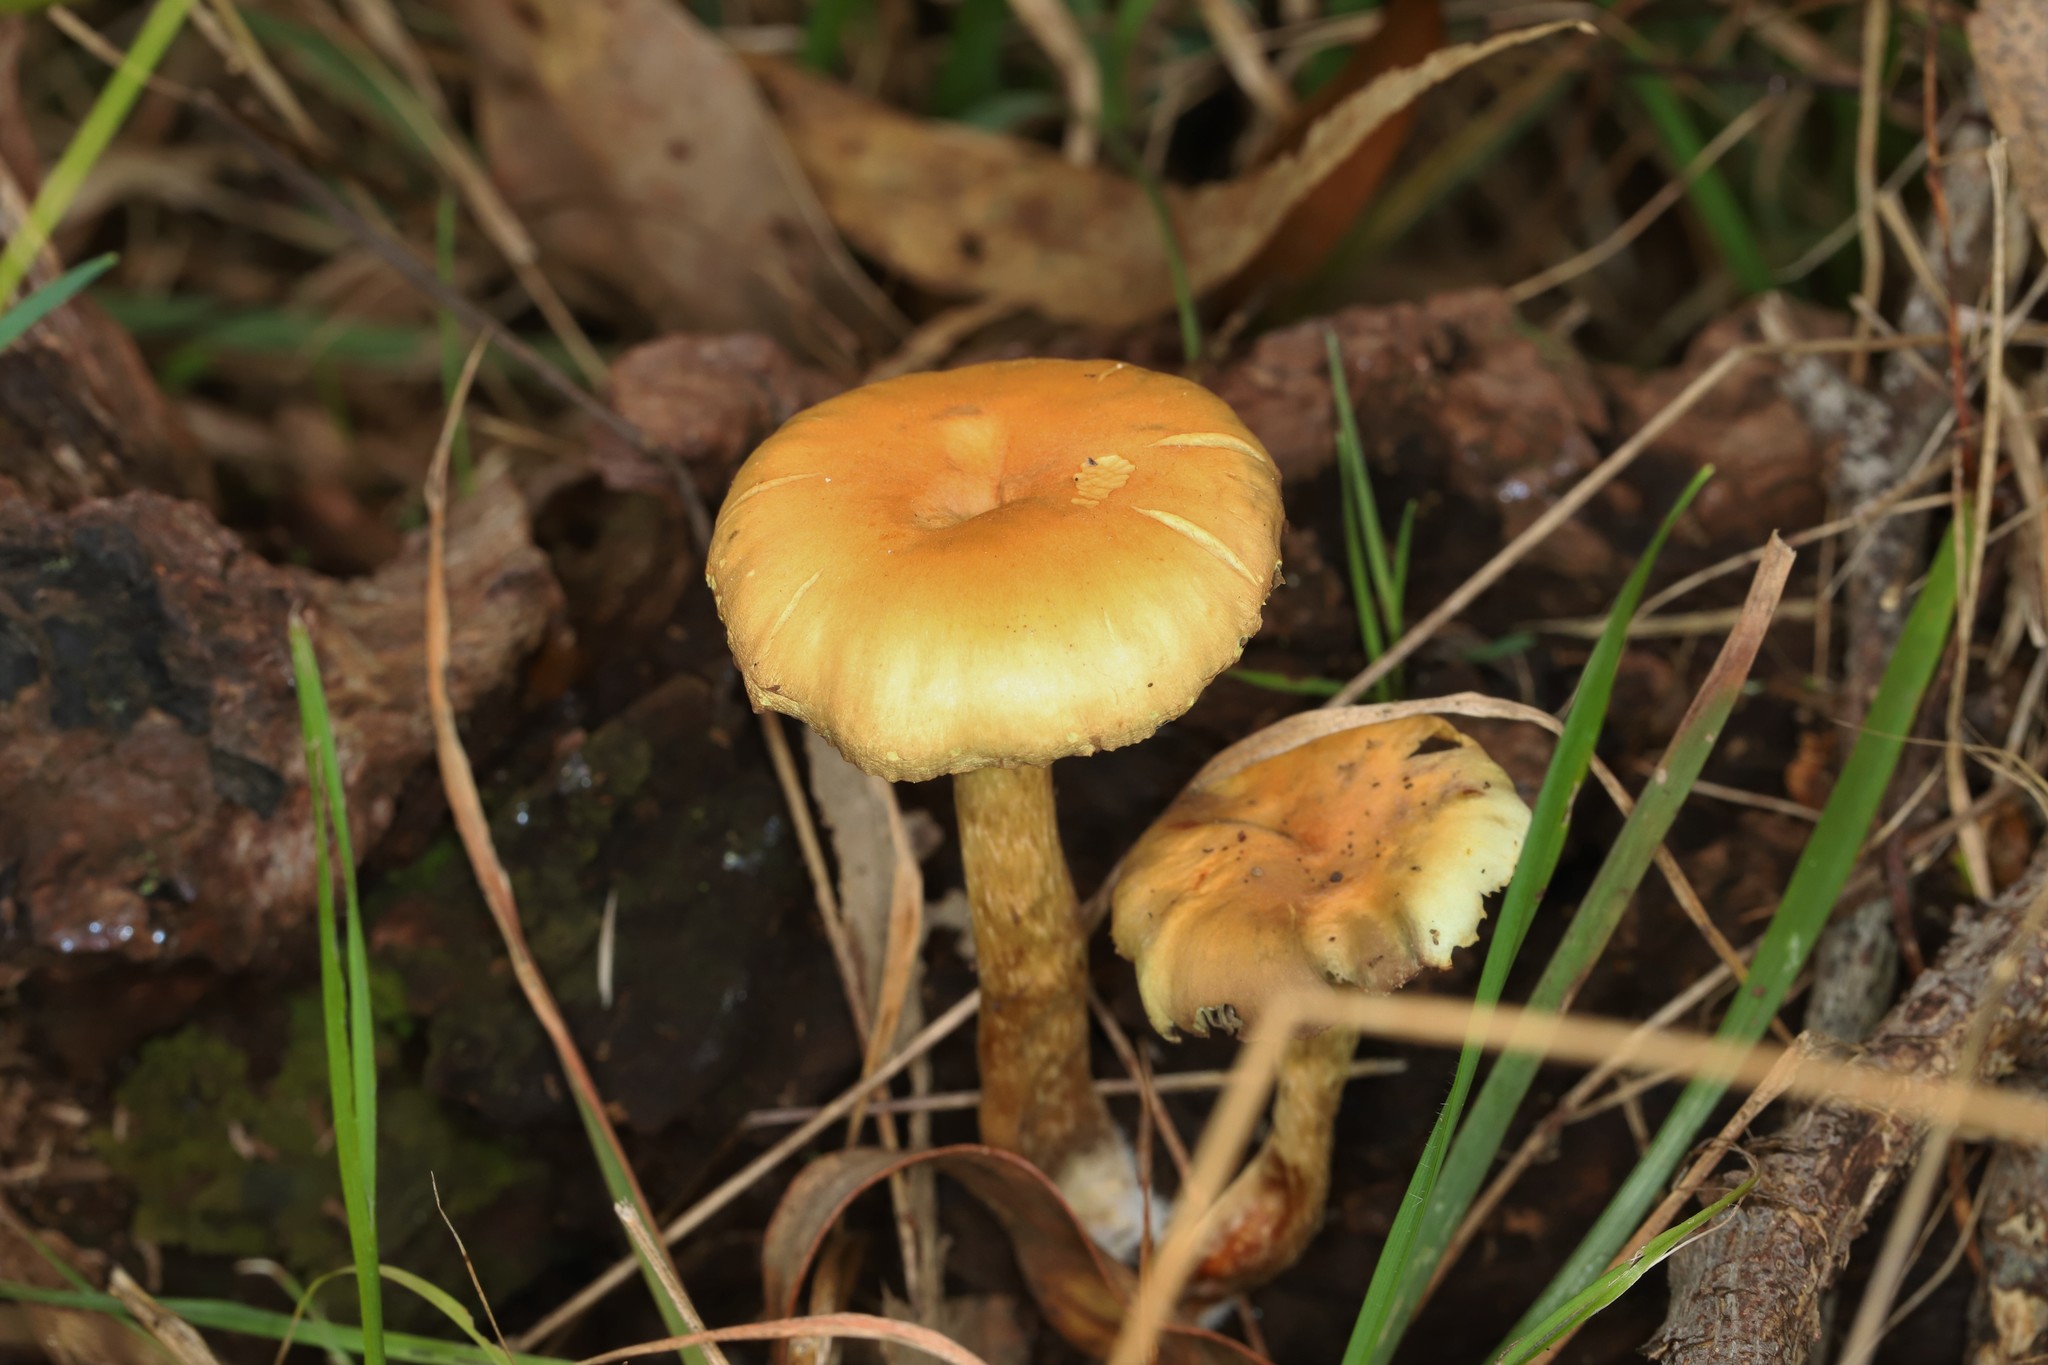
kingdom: Fungi
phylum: Basidiomycota
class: Agaricomycetes
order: Agaricales
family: Strophariaceae
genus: Hypholoma
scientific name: Hypholoma fasciculare
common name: Sulphur tuft
